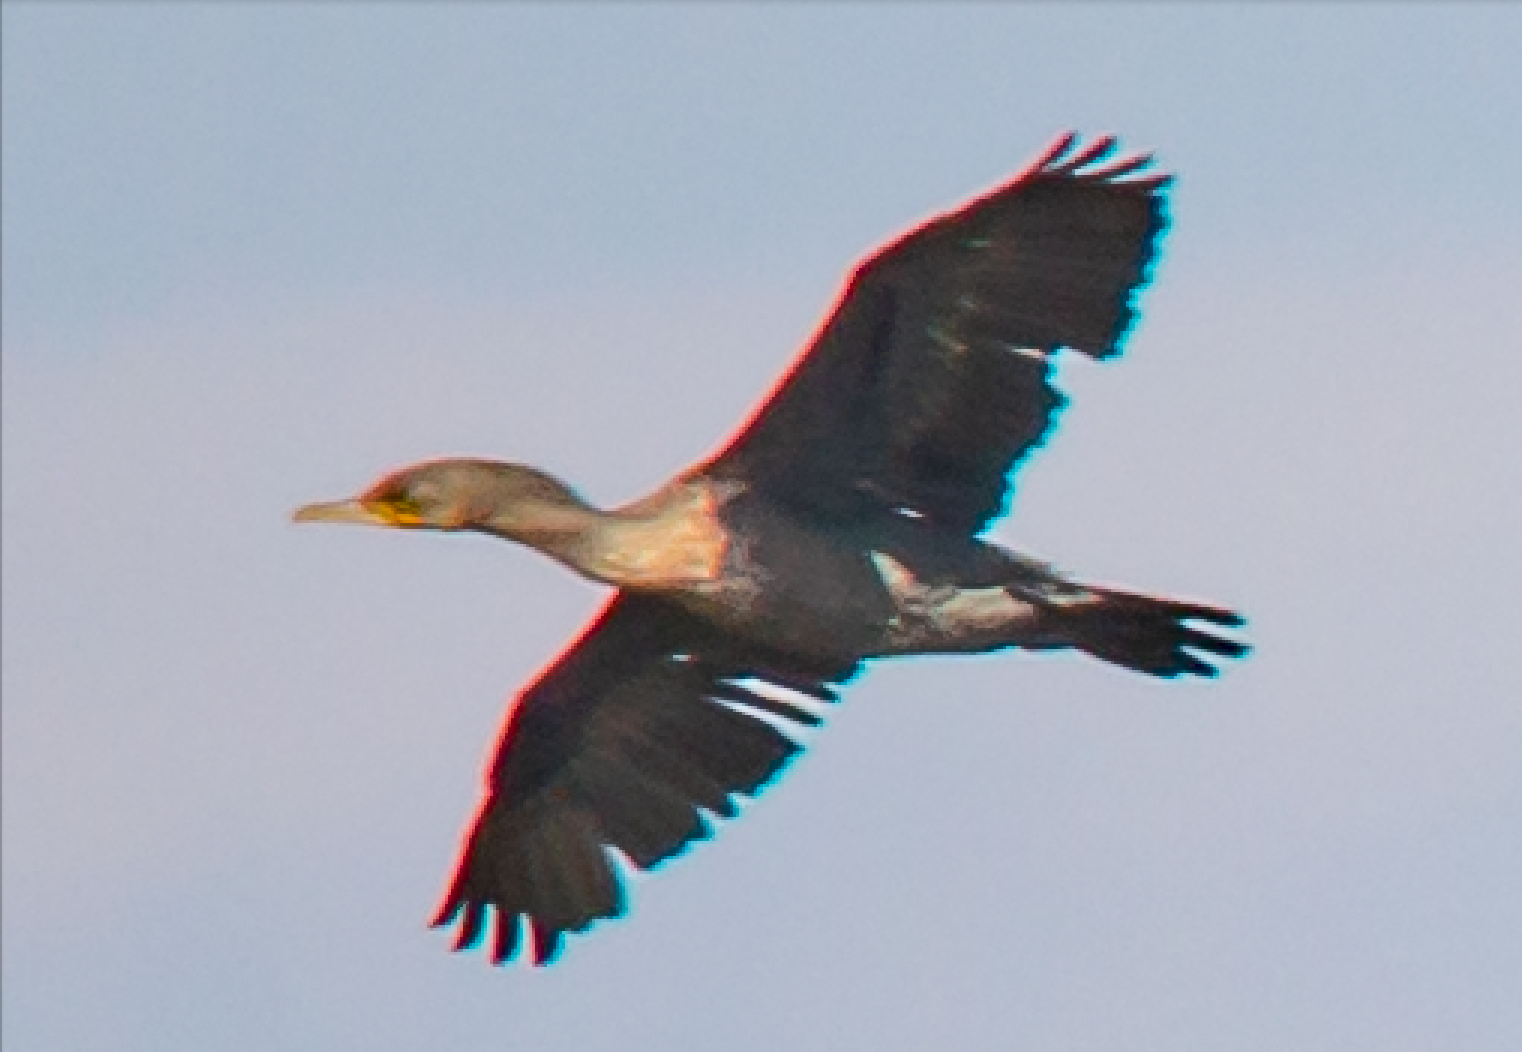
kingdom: Animalia
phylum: Chordata
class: Aves
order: Suliformes
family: Phalacrocoracidae
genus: Phalacrocorax
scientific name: Phalacrocorax carbo
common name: Great cormorant
